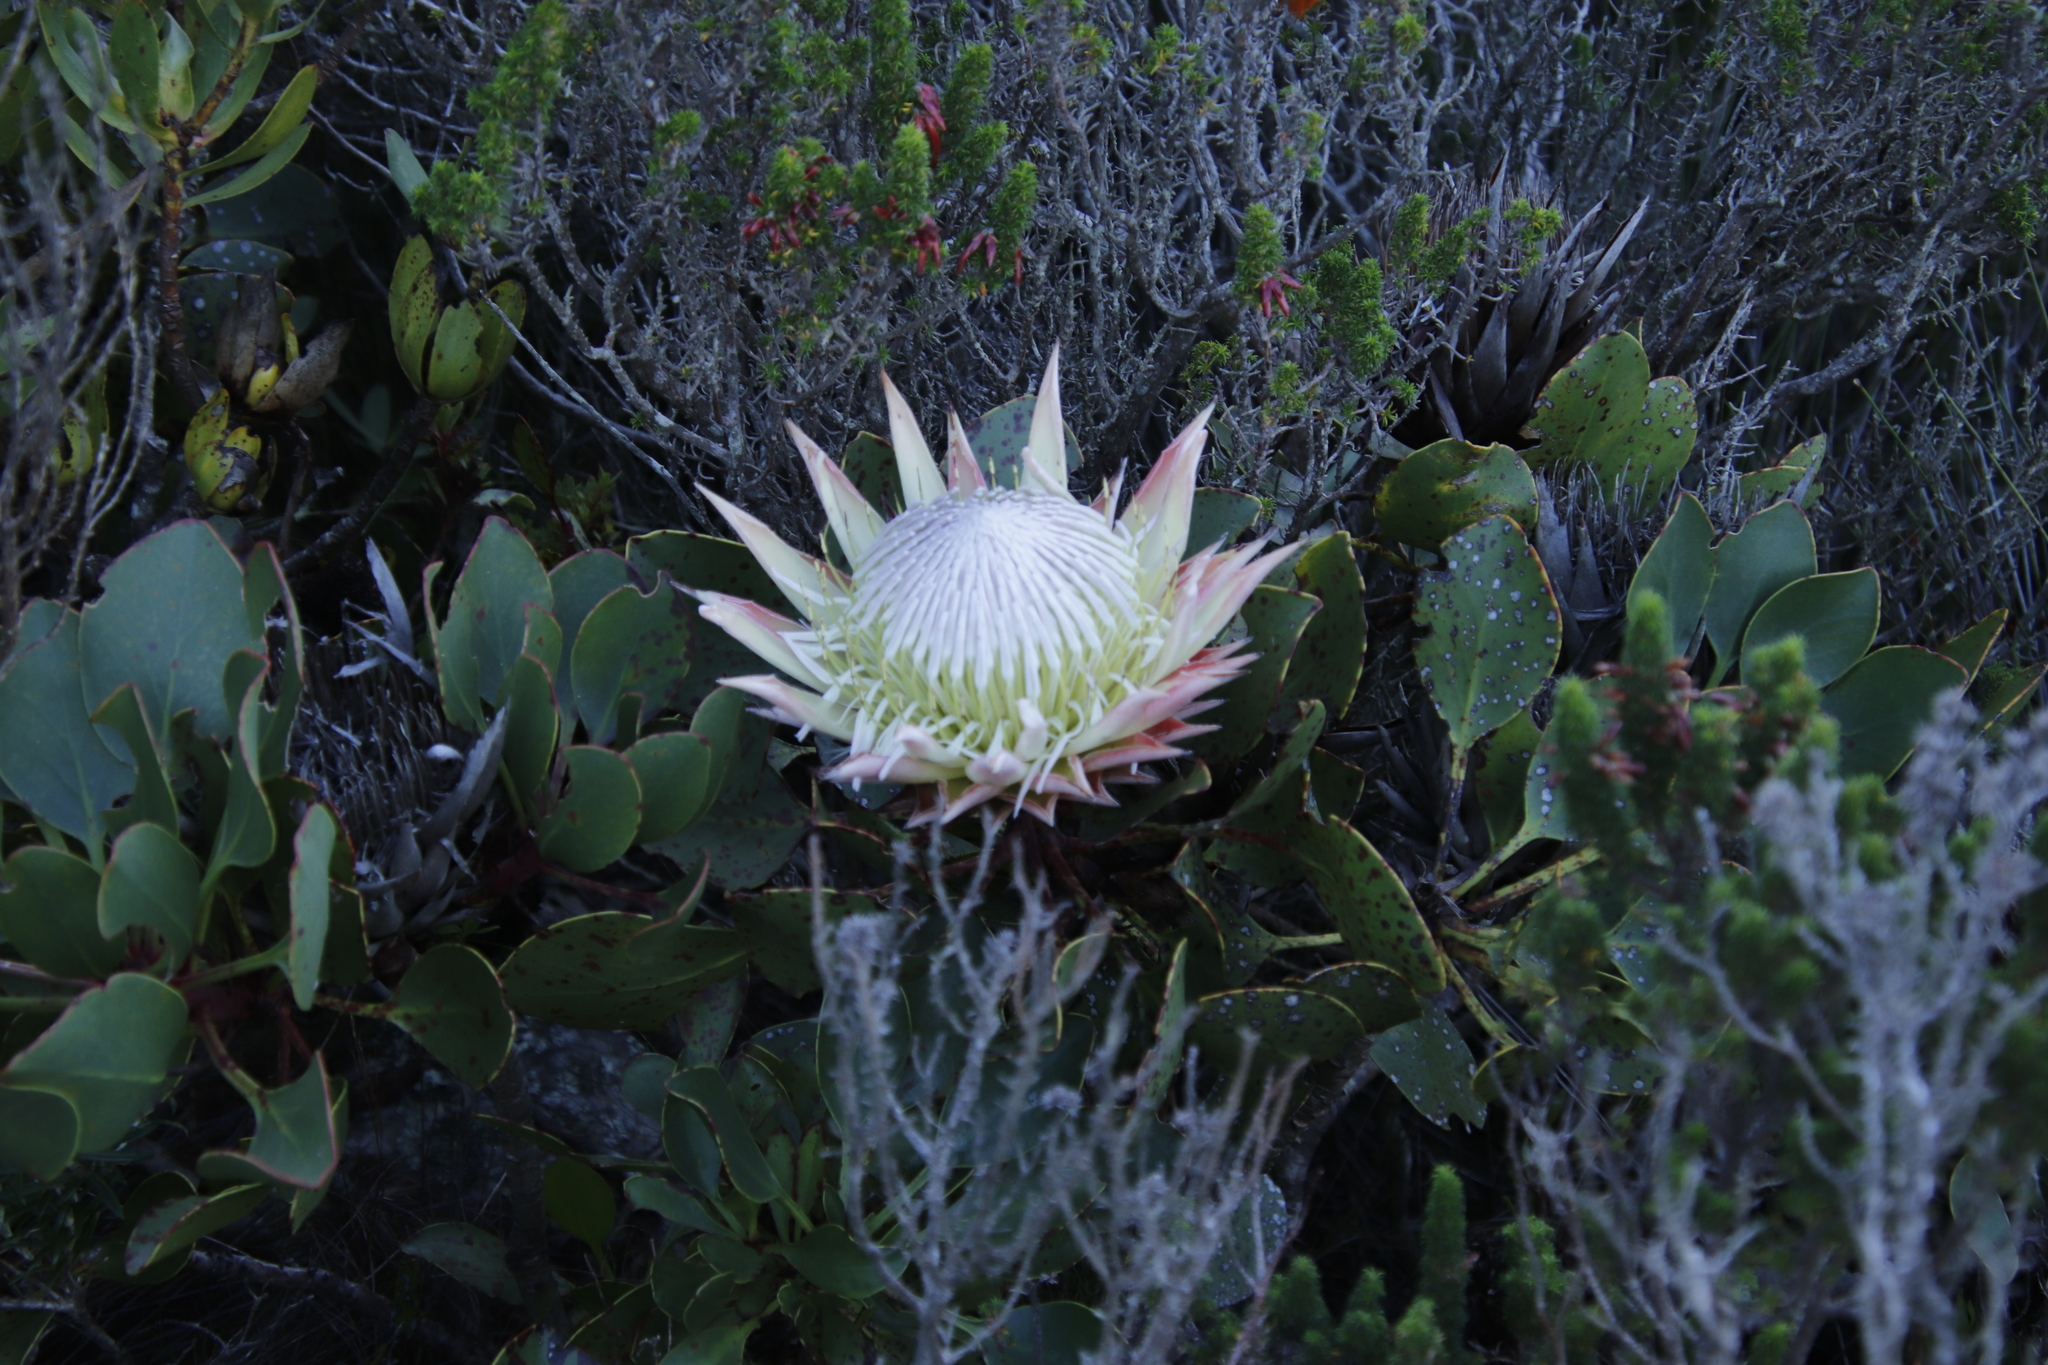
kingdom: Plantae
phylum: Tracheophyta
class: Magnoliopsida
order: Proteales
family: Proteaceae
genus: Protea
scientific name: Protea cynaroides
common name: King protea
